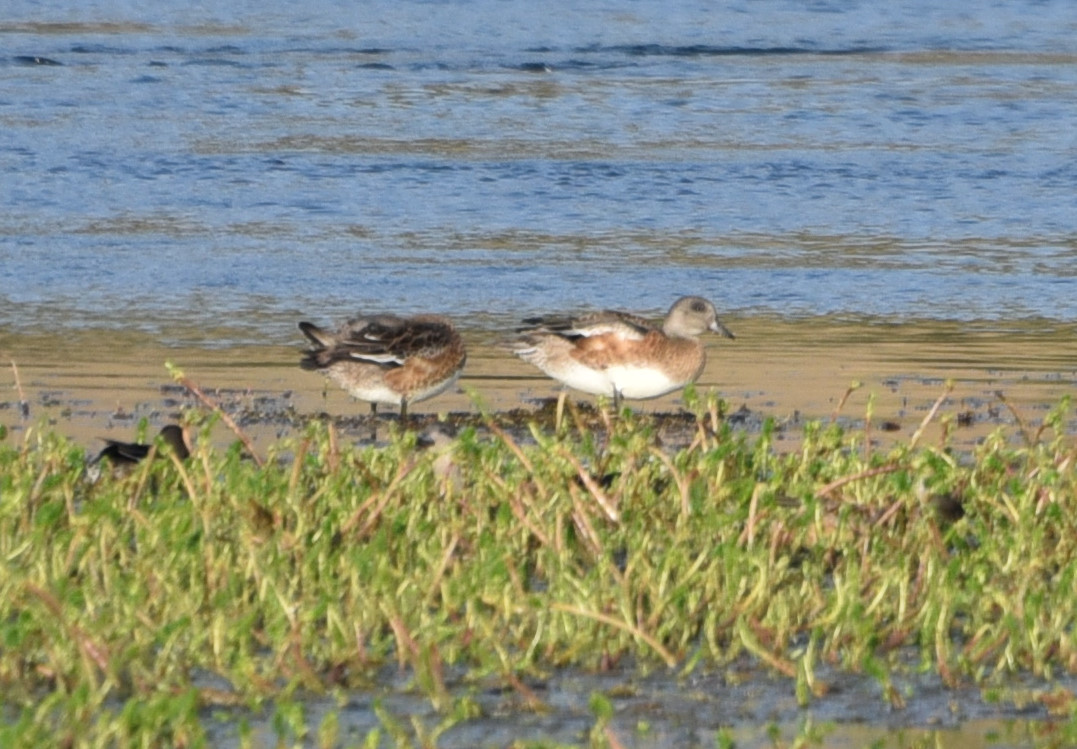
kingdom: Animalia
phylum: Chordata
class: Aves
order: Anseriformes
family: Anatidae
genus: Mareca
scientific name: Mareca americana
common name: American wigeon
